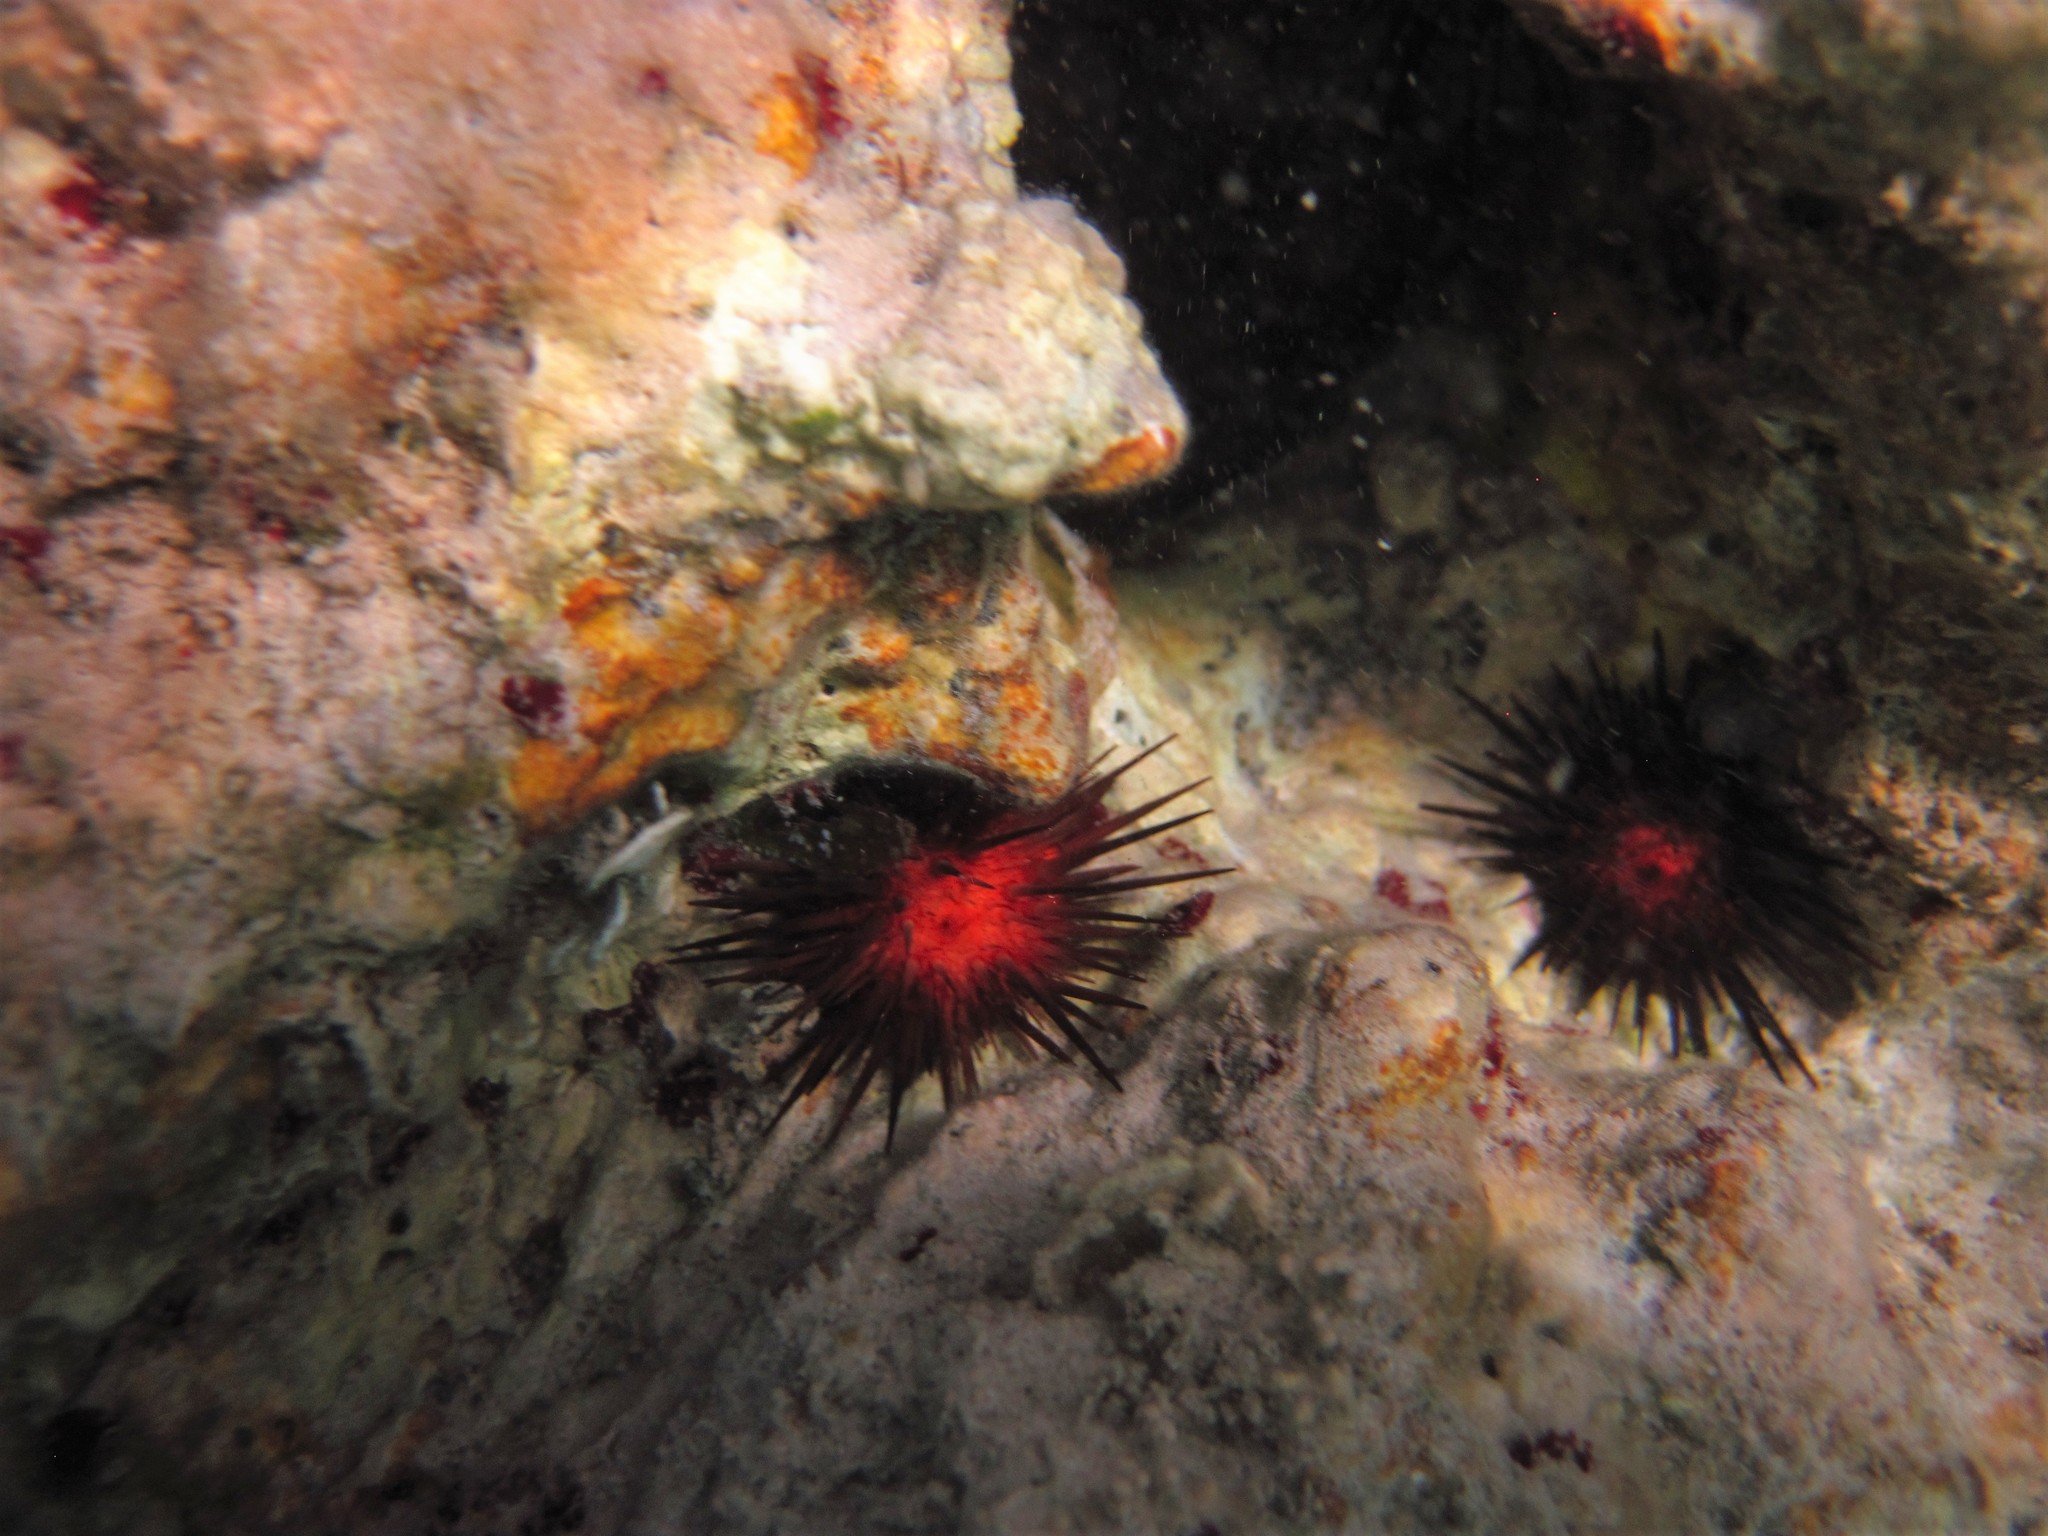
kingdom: Animalia
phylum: Echinodermata
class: Echinoidea
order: Camarodonta
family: Echinometridae
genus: Echinometra
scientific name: Echinometra lucunter
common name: Rock urchin
